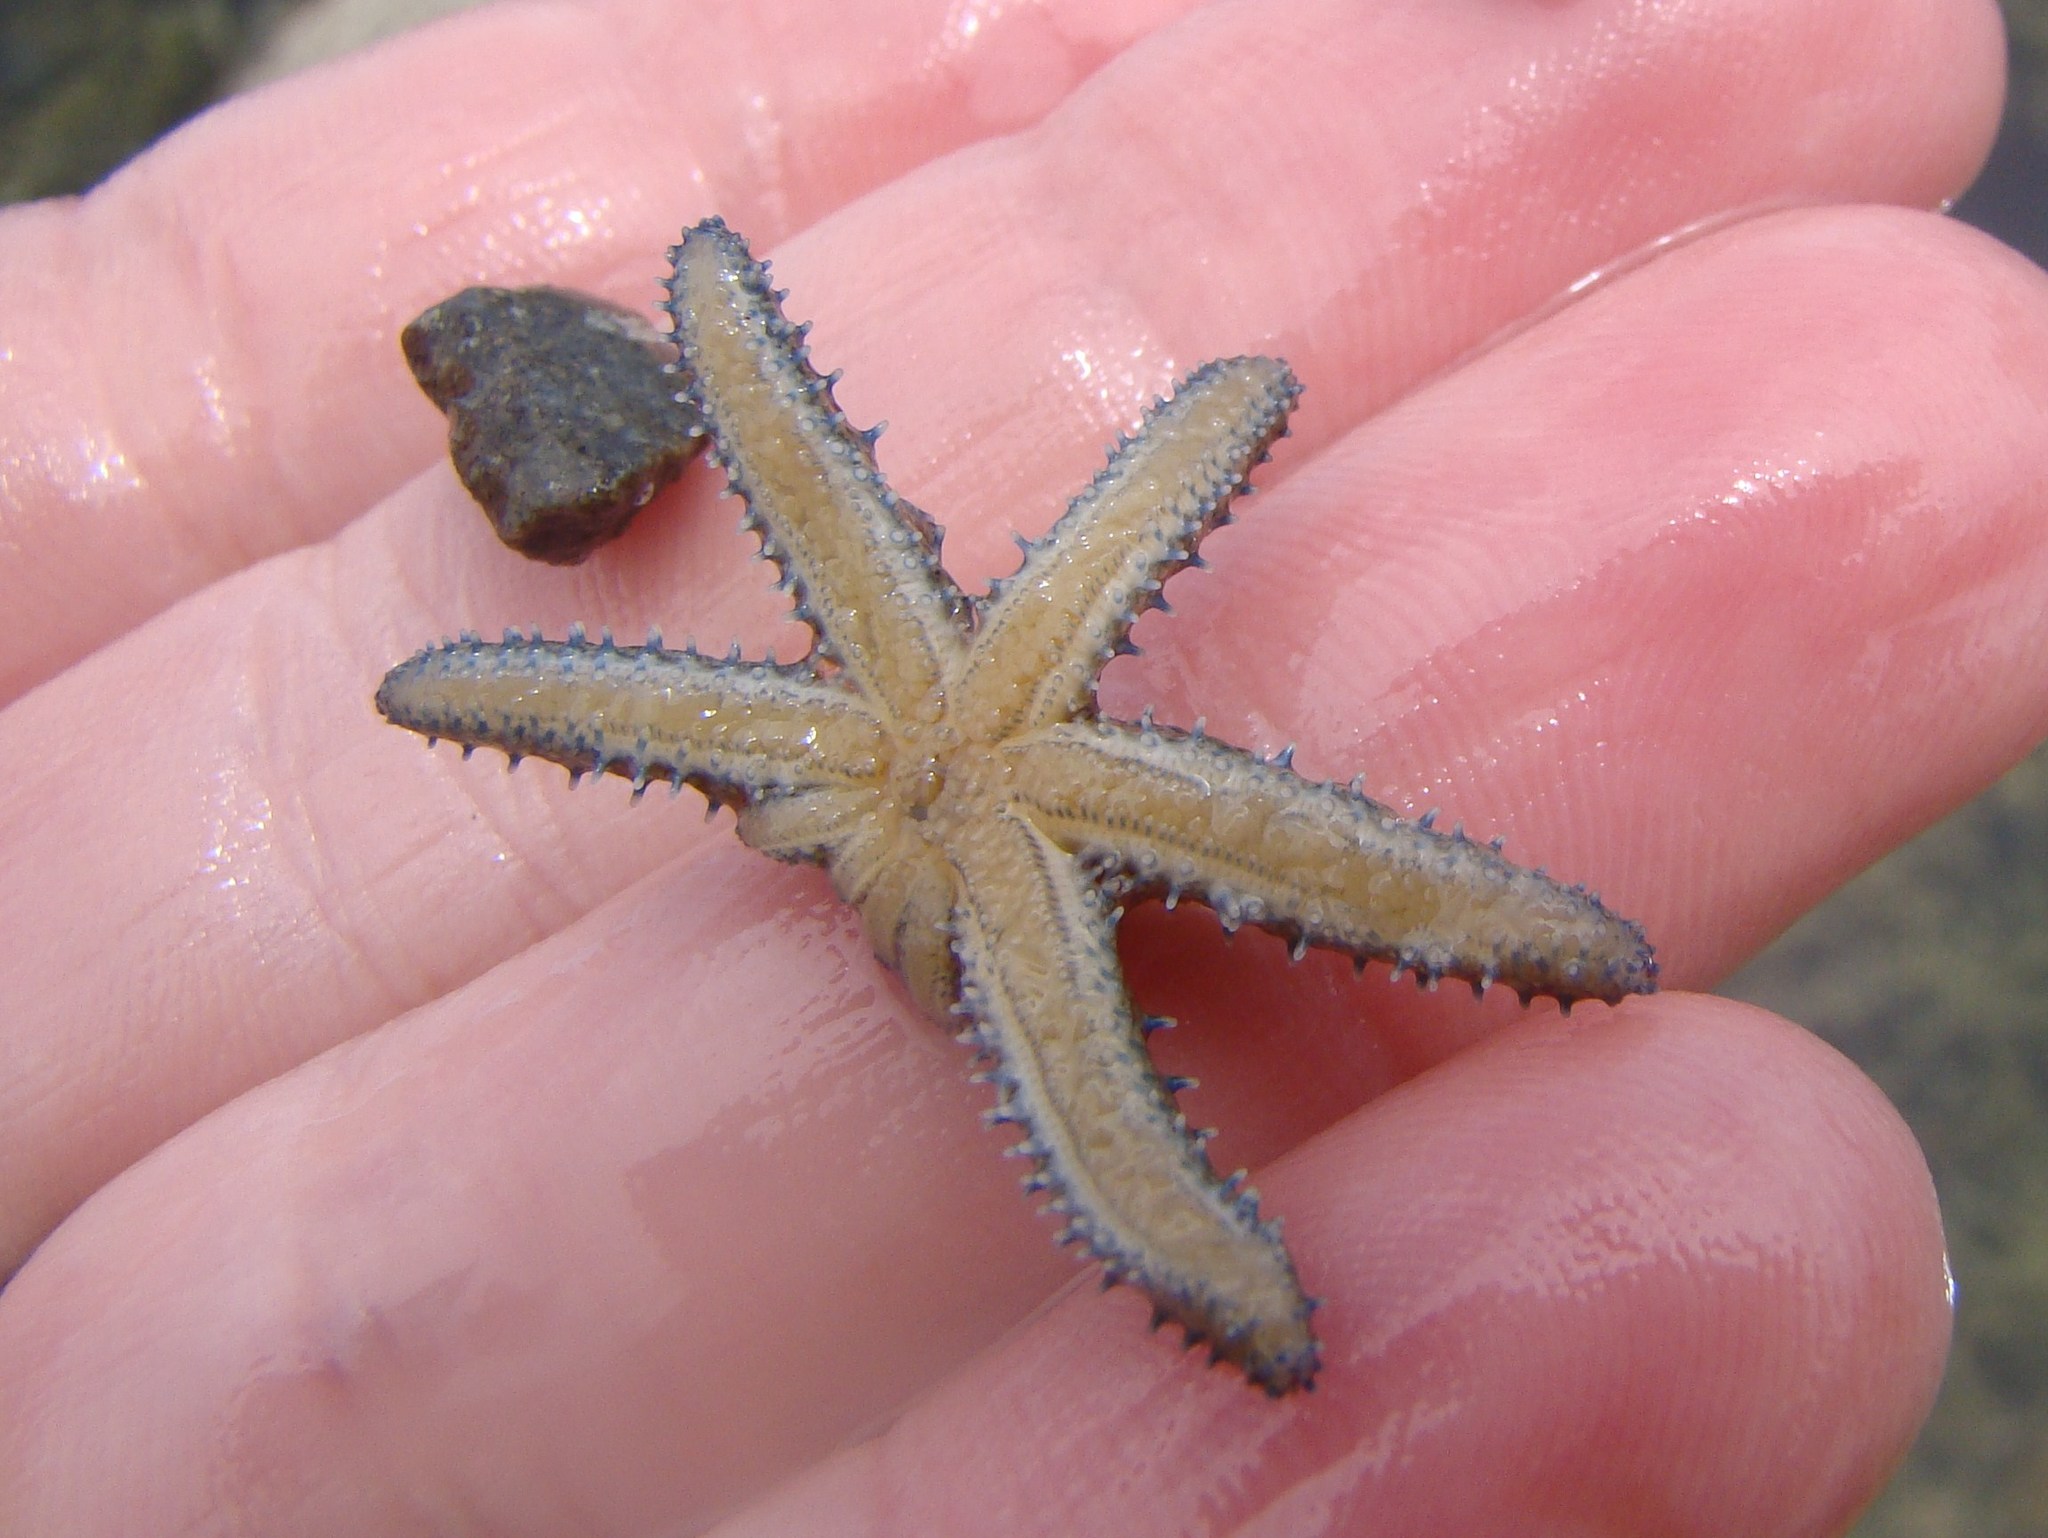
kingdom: Animalia
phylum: Echinodermata
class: Asteroidea
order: Forcipulatida
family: Asteriidae
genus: Coscinasterias
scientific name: Coscinasterias muricata
